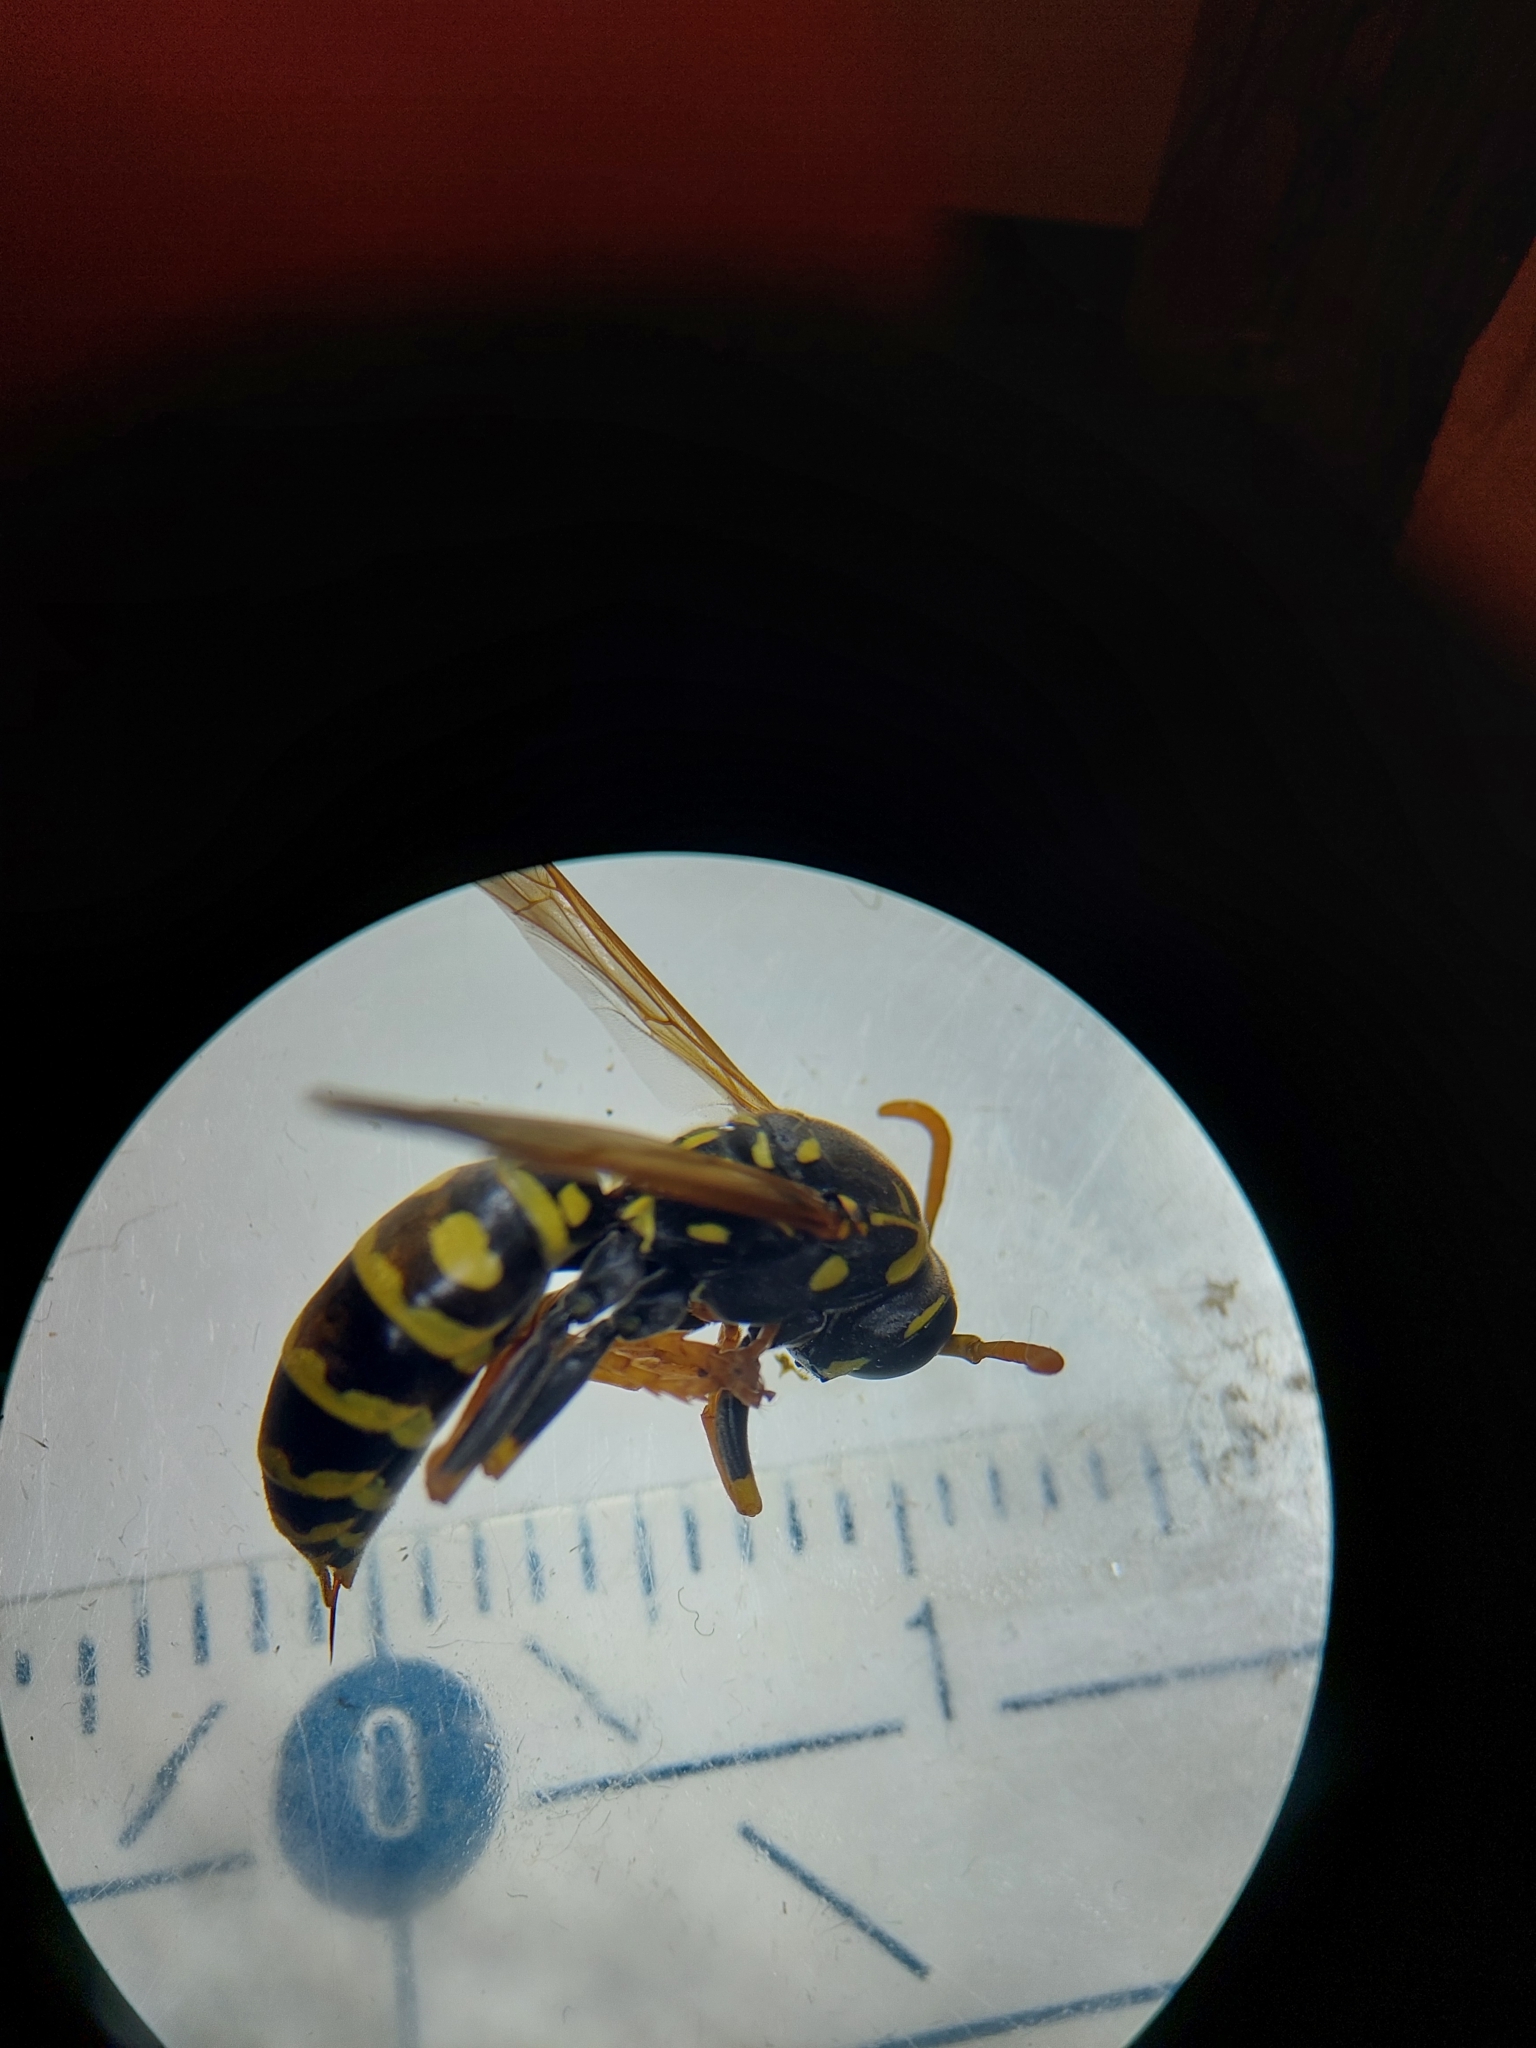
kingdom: Animalia
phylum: Arthropoda
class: Insecta
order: Hymenoptera
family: Eumenidae
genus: Polistes
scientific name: Polistes dominula
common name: Paper wasp
